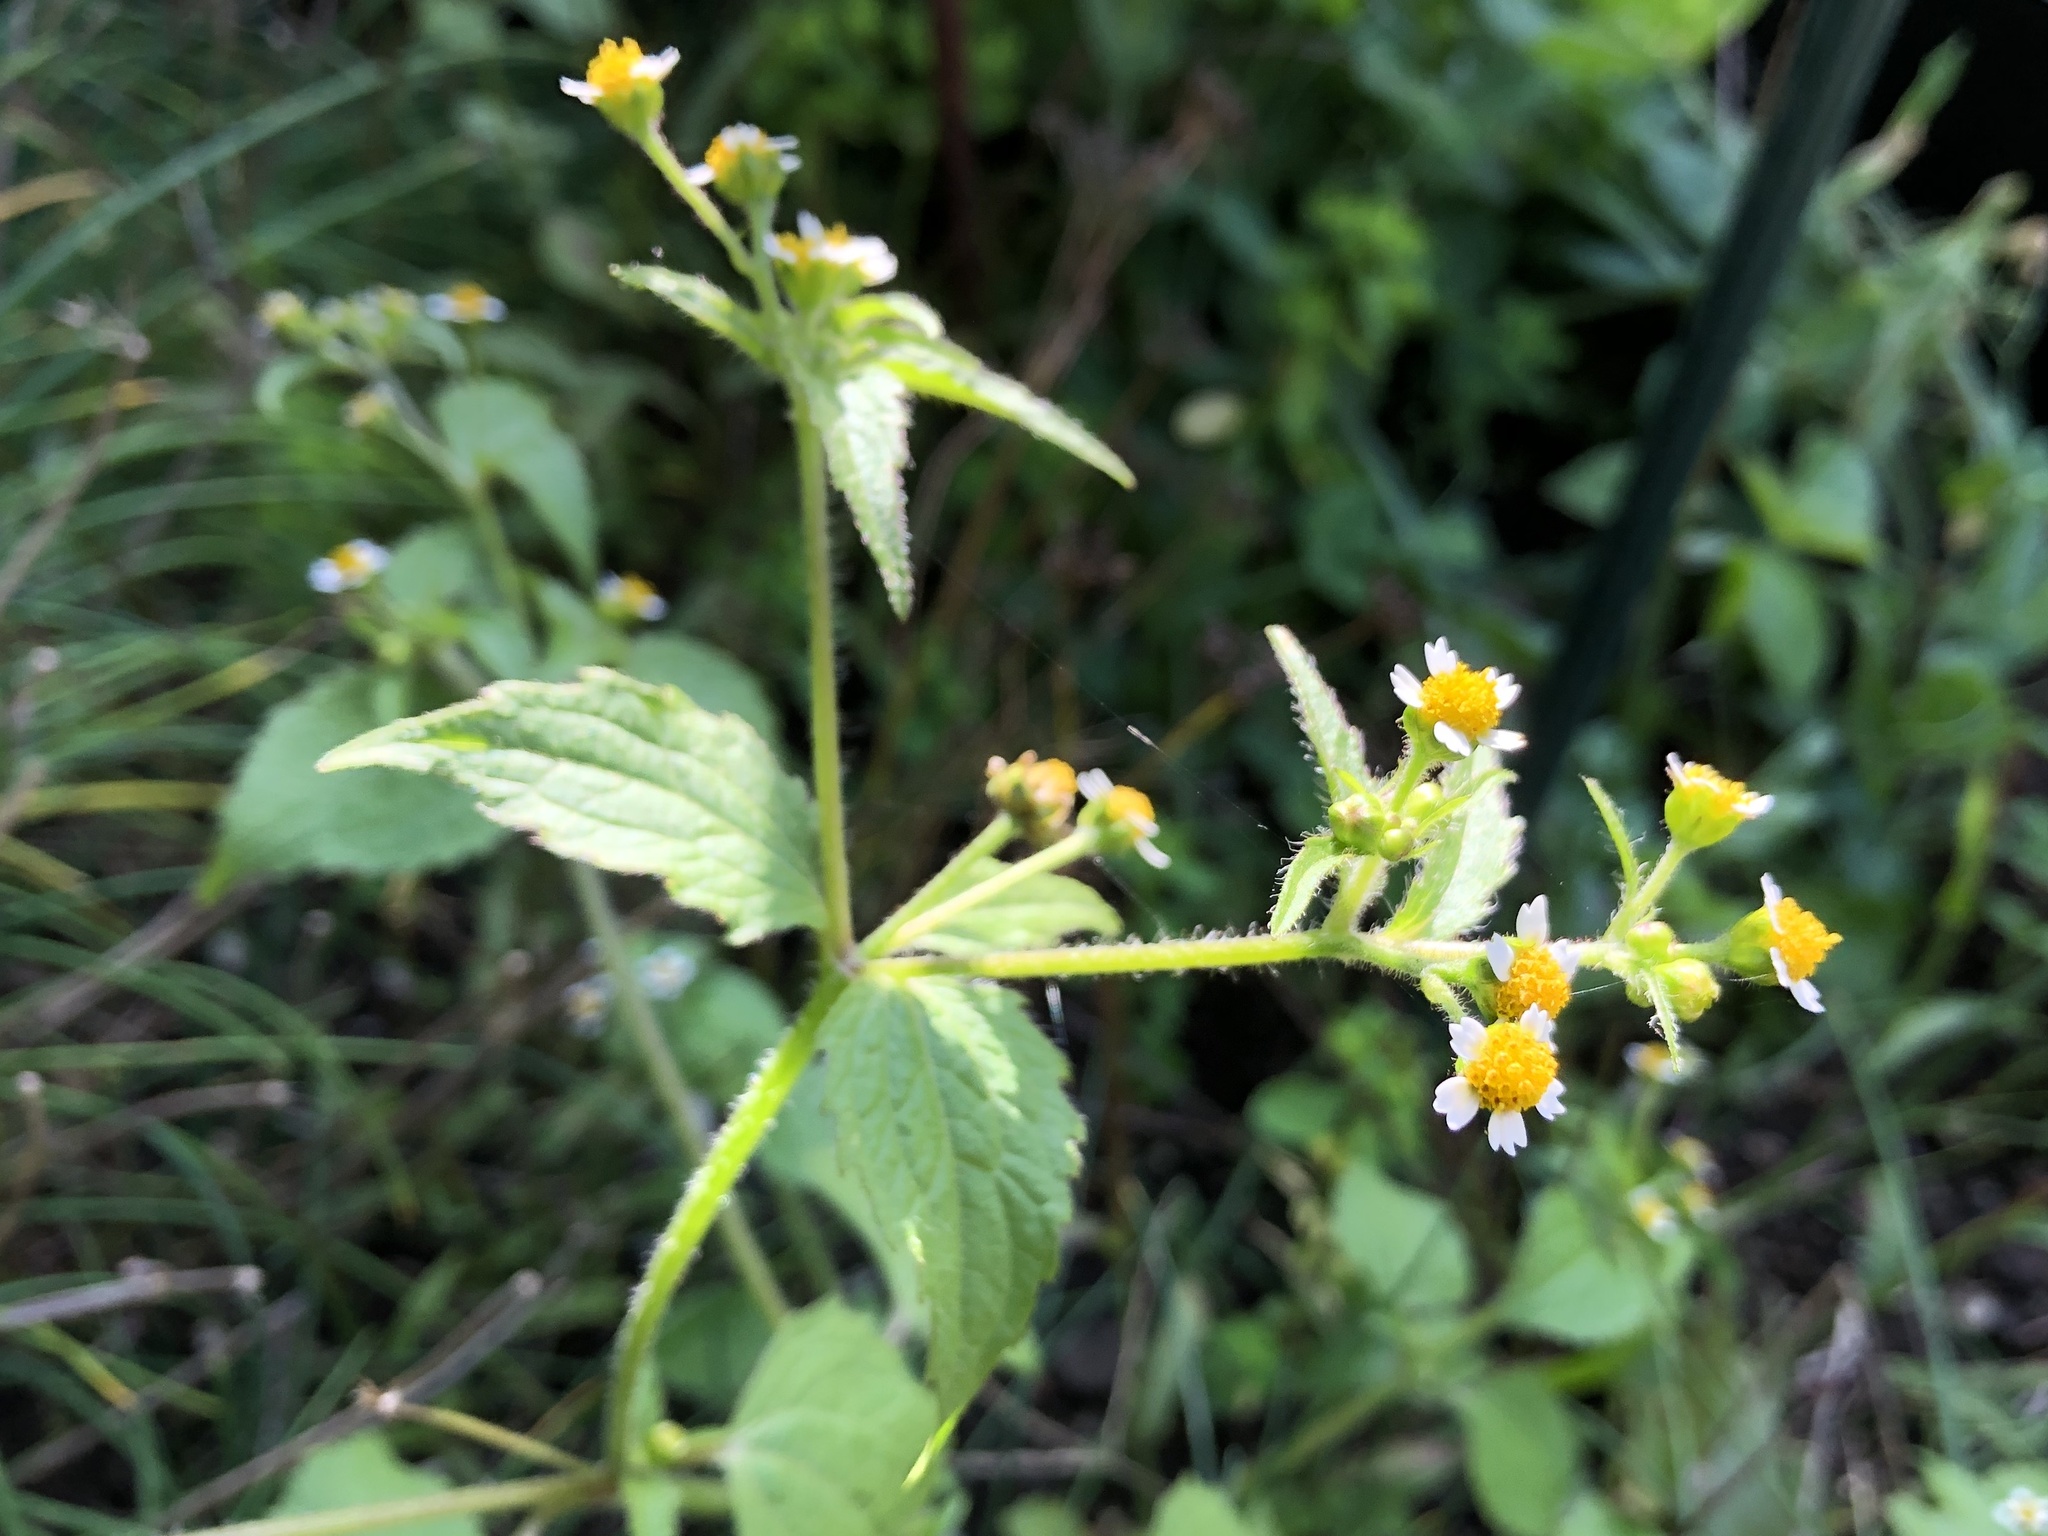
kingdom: Plantae
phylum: Tracheophyta
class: Magnoliopsida
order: Asterales
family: Asteraceae
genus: Galinsoga
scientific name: Galinsoga quadriradiata
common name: Shaggy soldier
